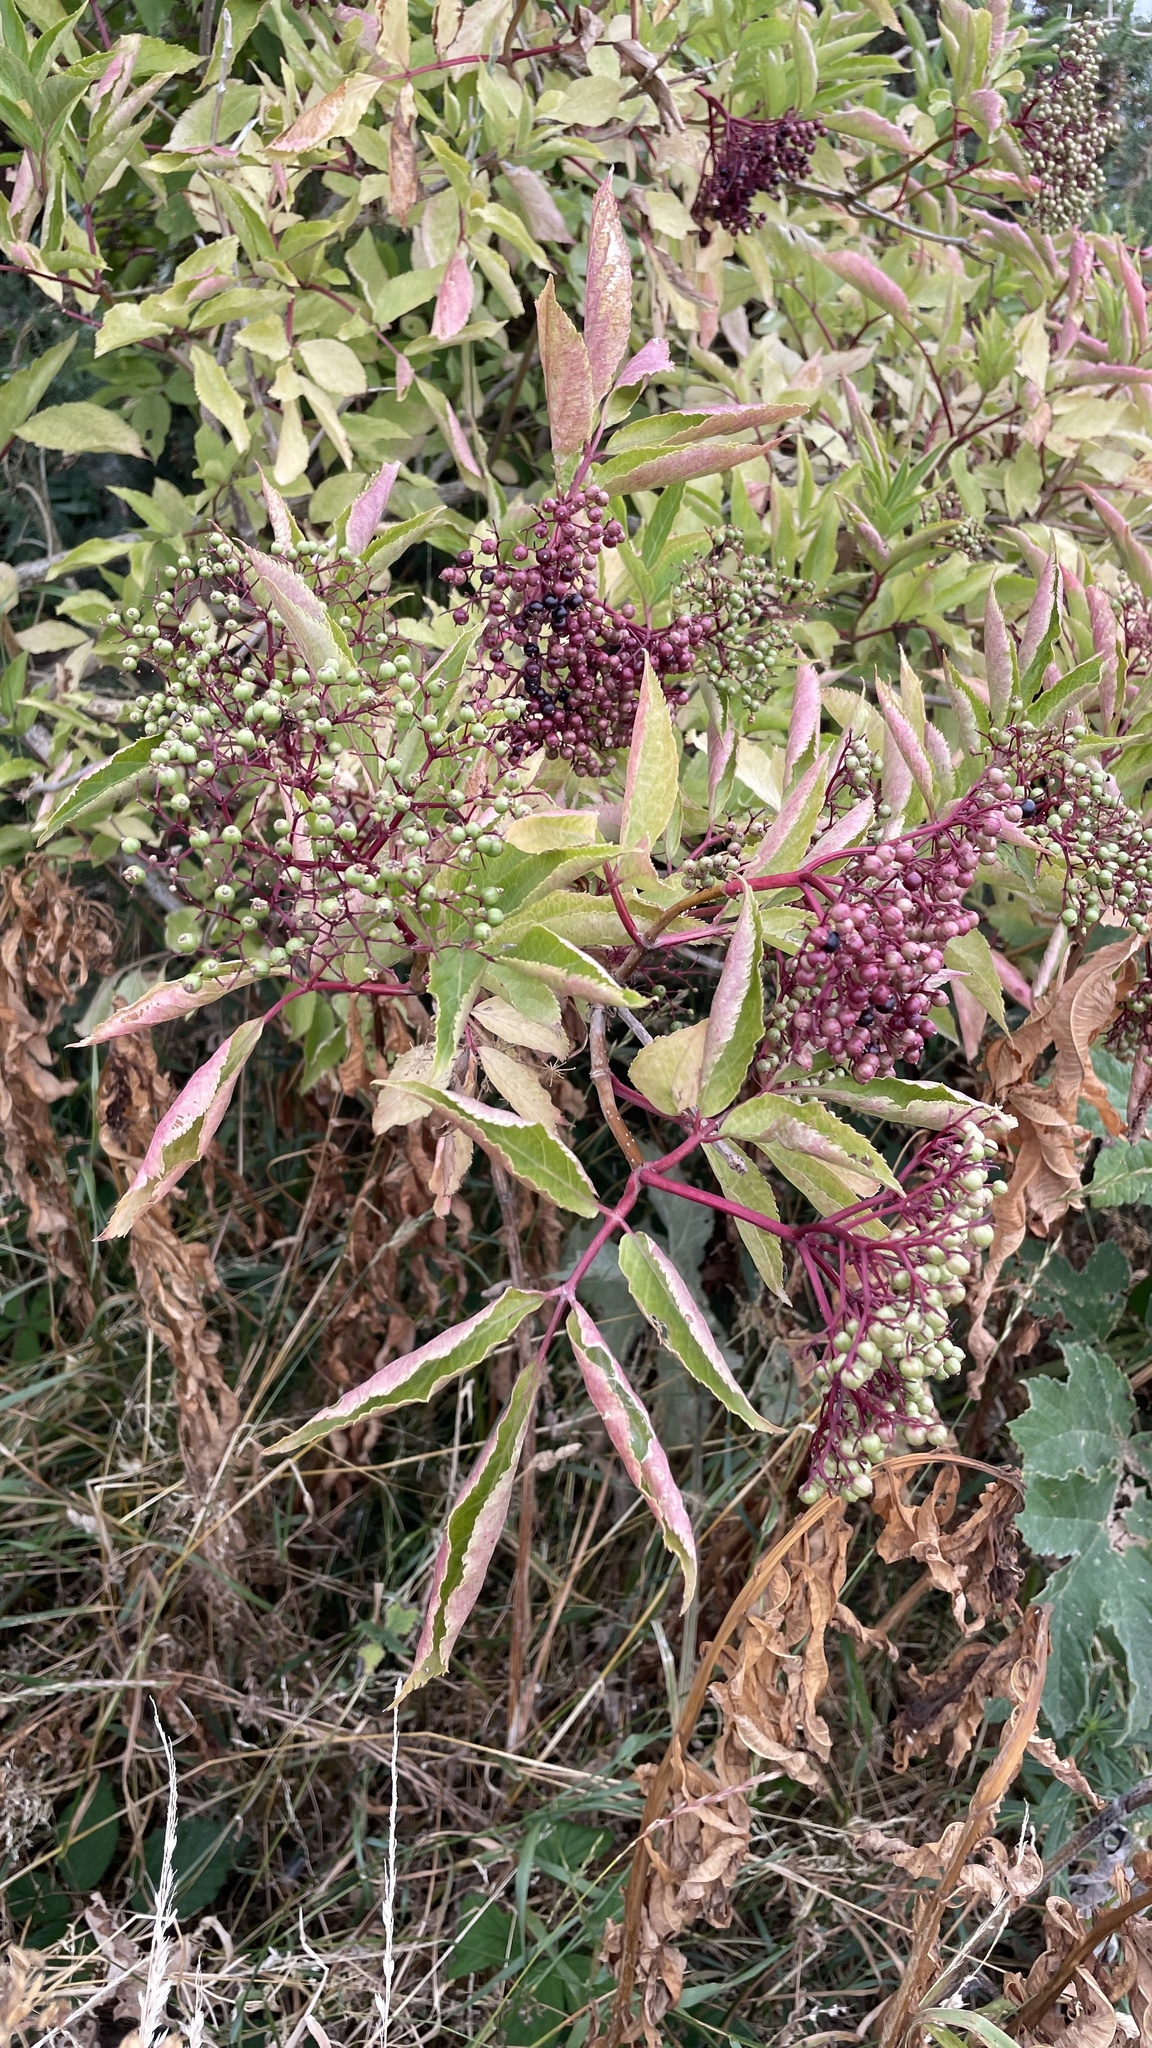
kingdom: Plantae
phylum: Tracheophyta
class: Magnoliopsida
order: Dipsacales
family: Viburnaceae
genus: Sambucus
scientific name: Sambucus nigra
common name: Elder
